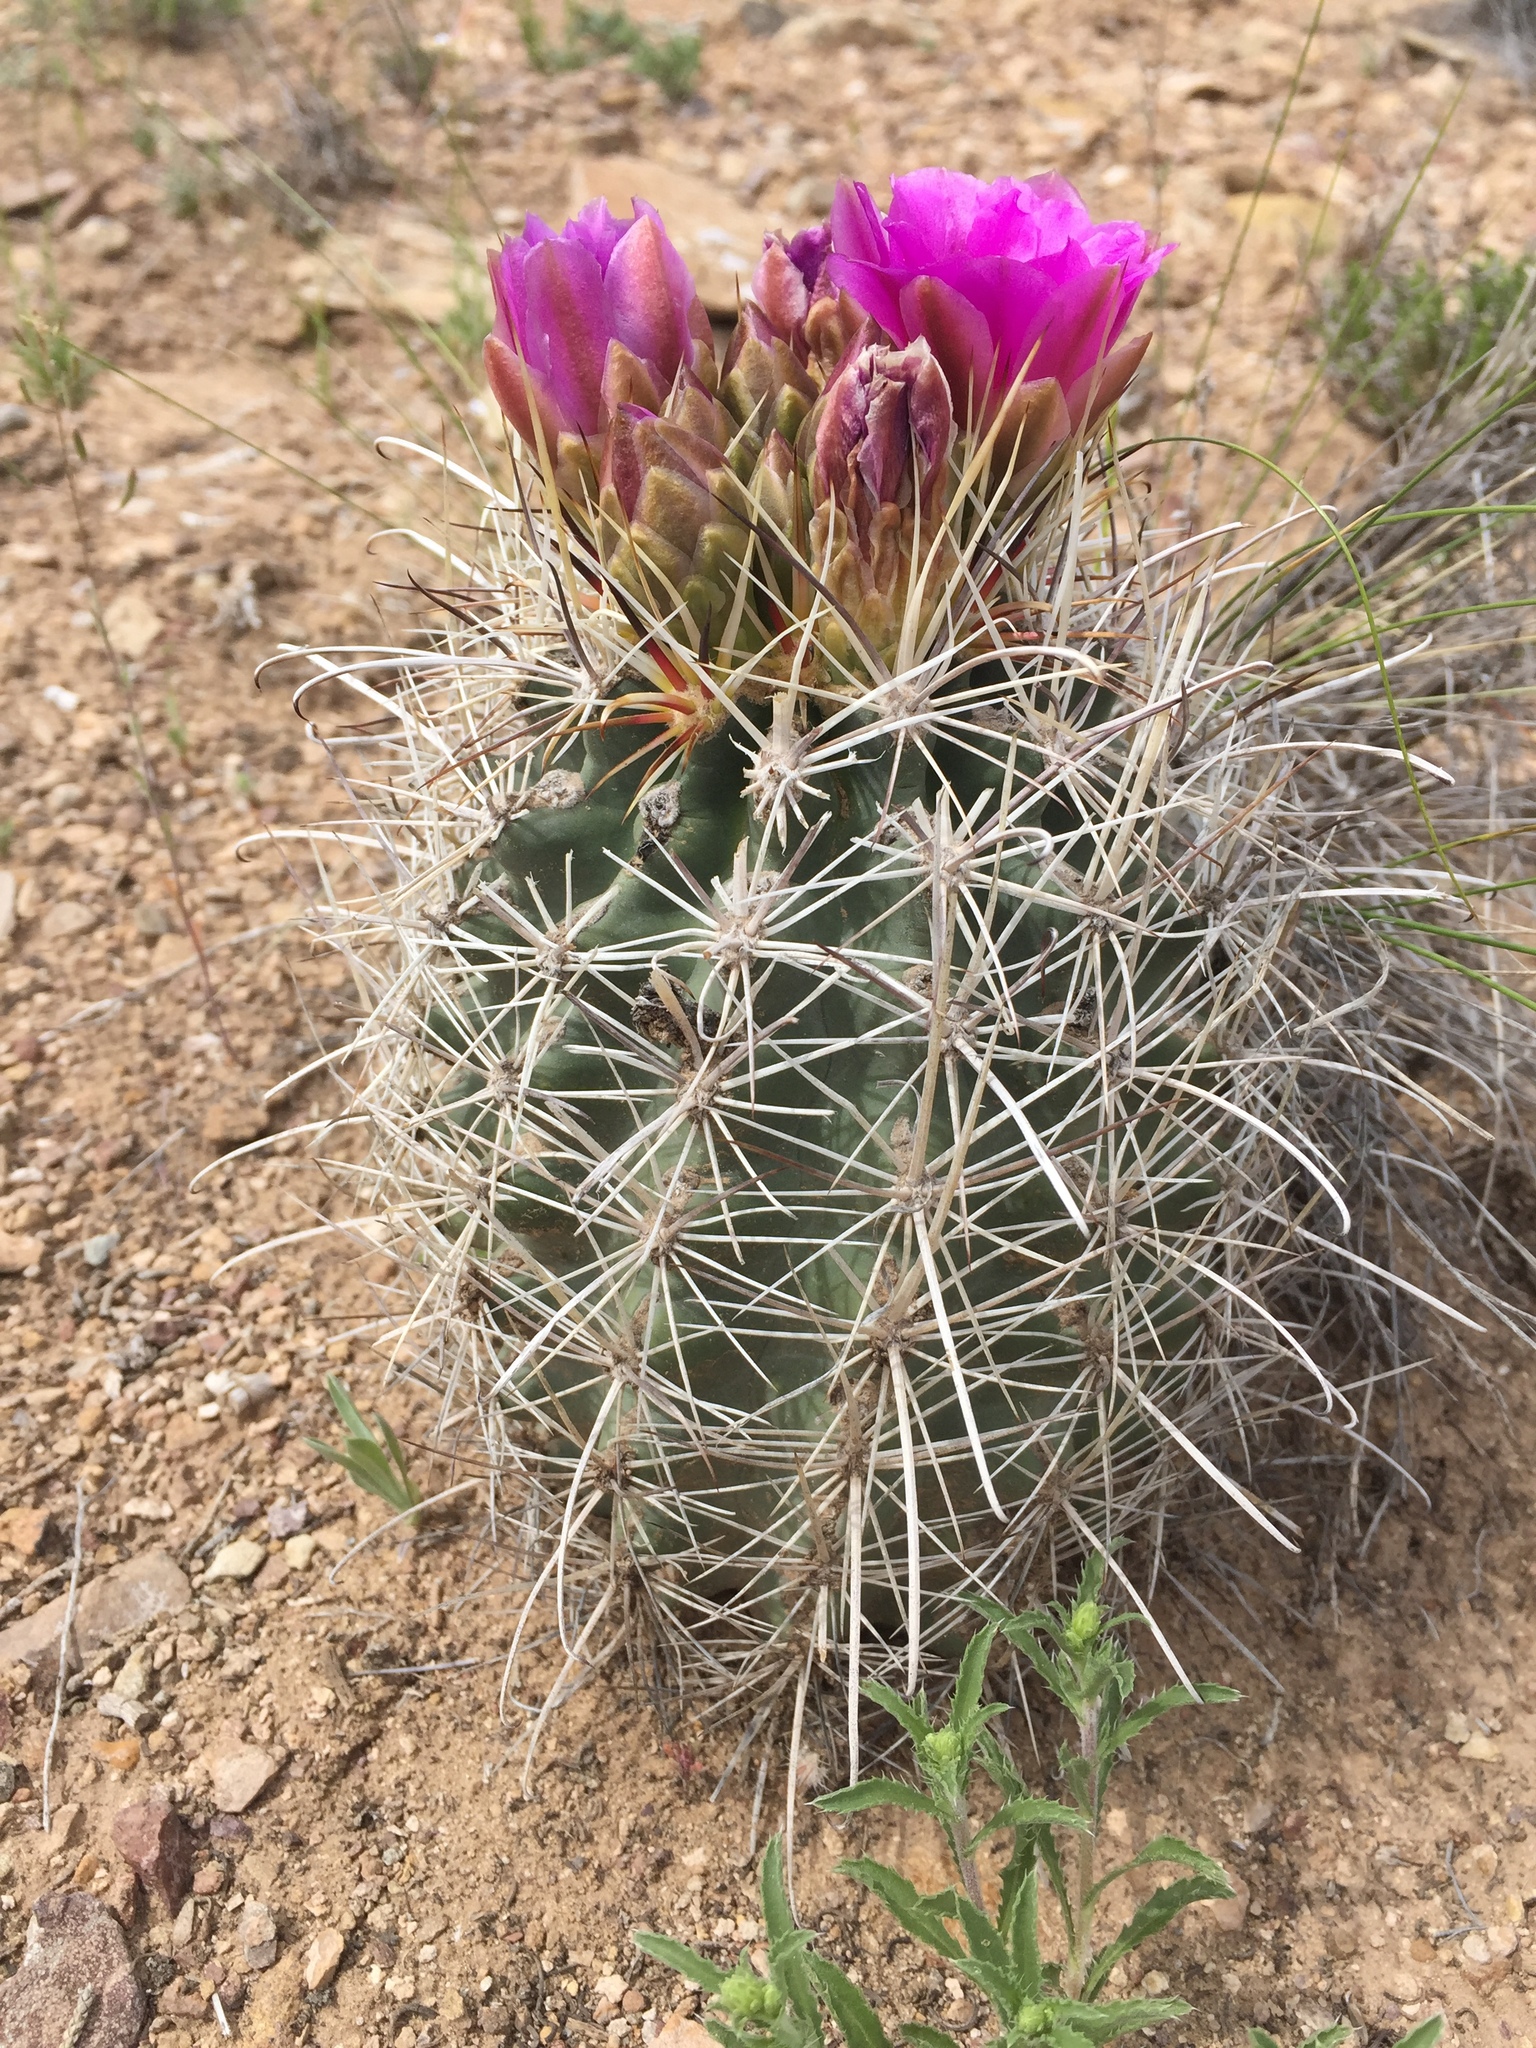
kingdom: Plantae
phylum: Tracheophyta
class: Magnoliopsida
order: Caryophyllales
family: Cactaceae
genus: Sclerocactus
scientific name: Sclerocactus parviflorus
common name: Small-flower fishhook cactus
